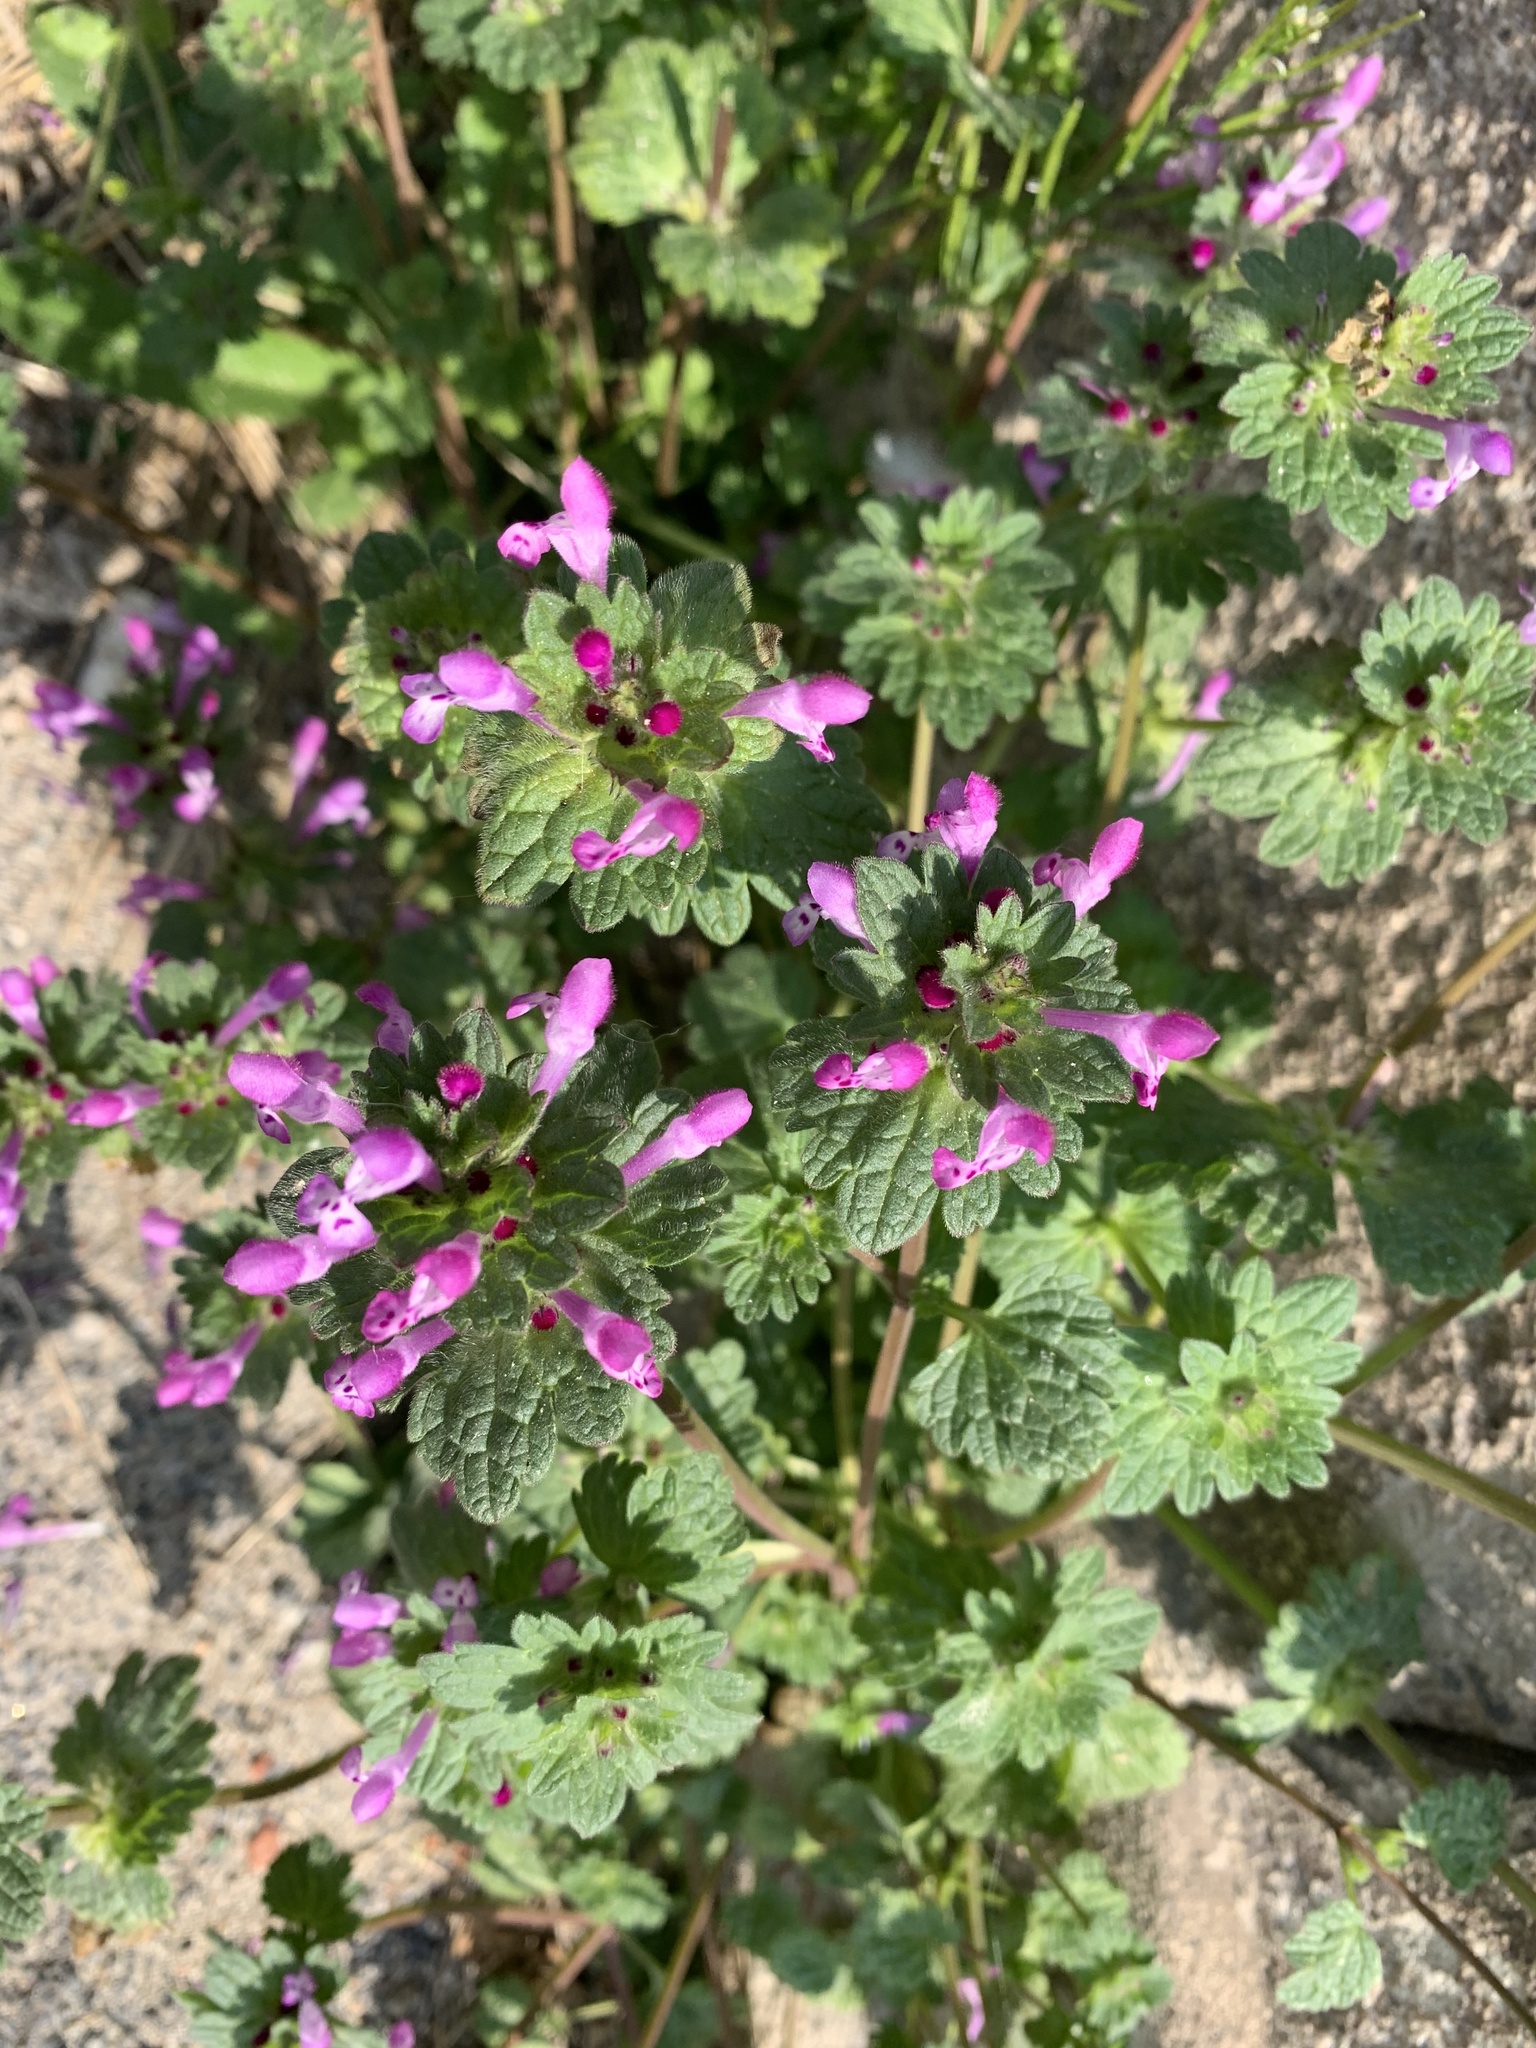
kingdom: Plantae
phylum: Tracheophyta
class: Magnoliopsida
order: Lamiales
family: Lamiaceae
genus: Lamium
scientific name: Lamium amplexicaule
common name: Henbit dead-nettle
